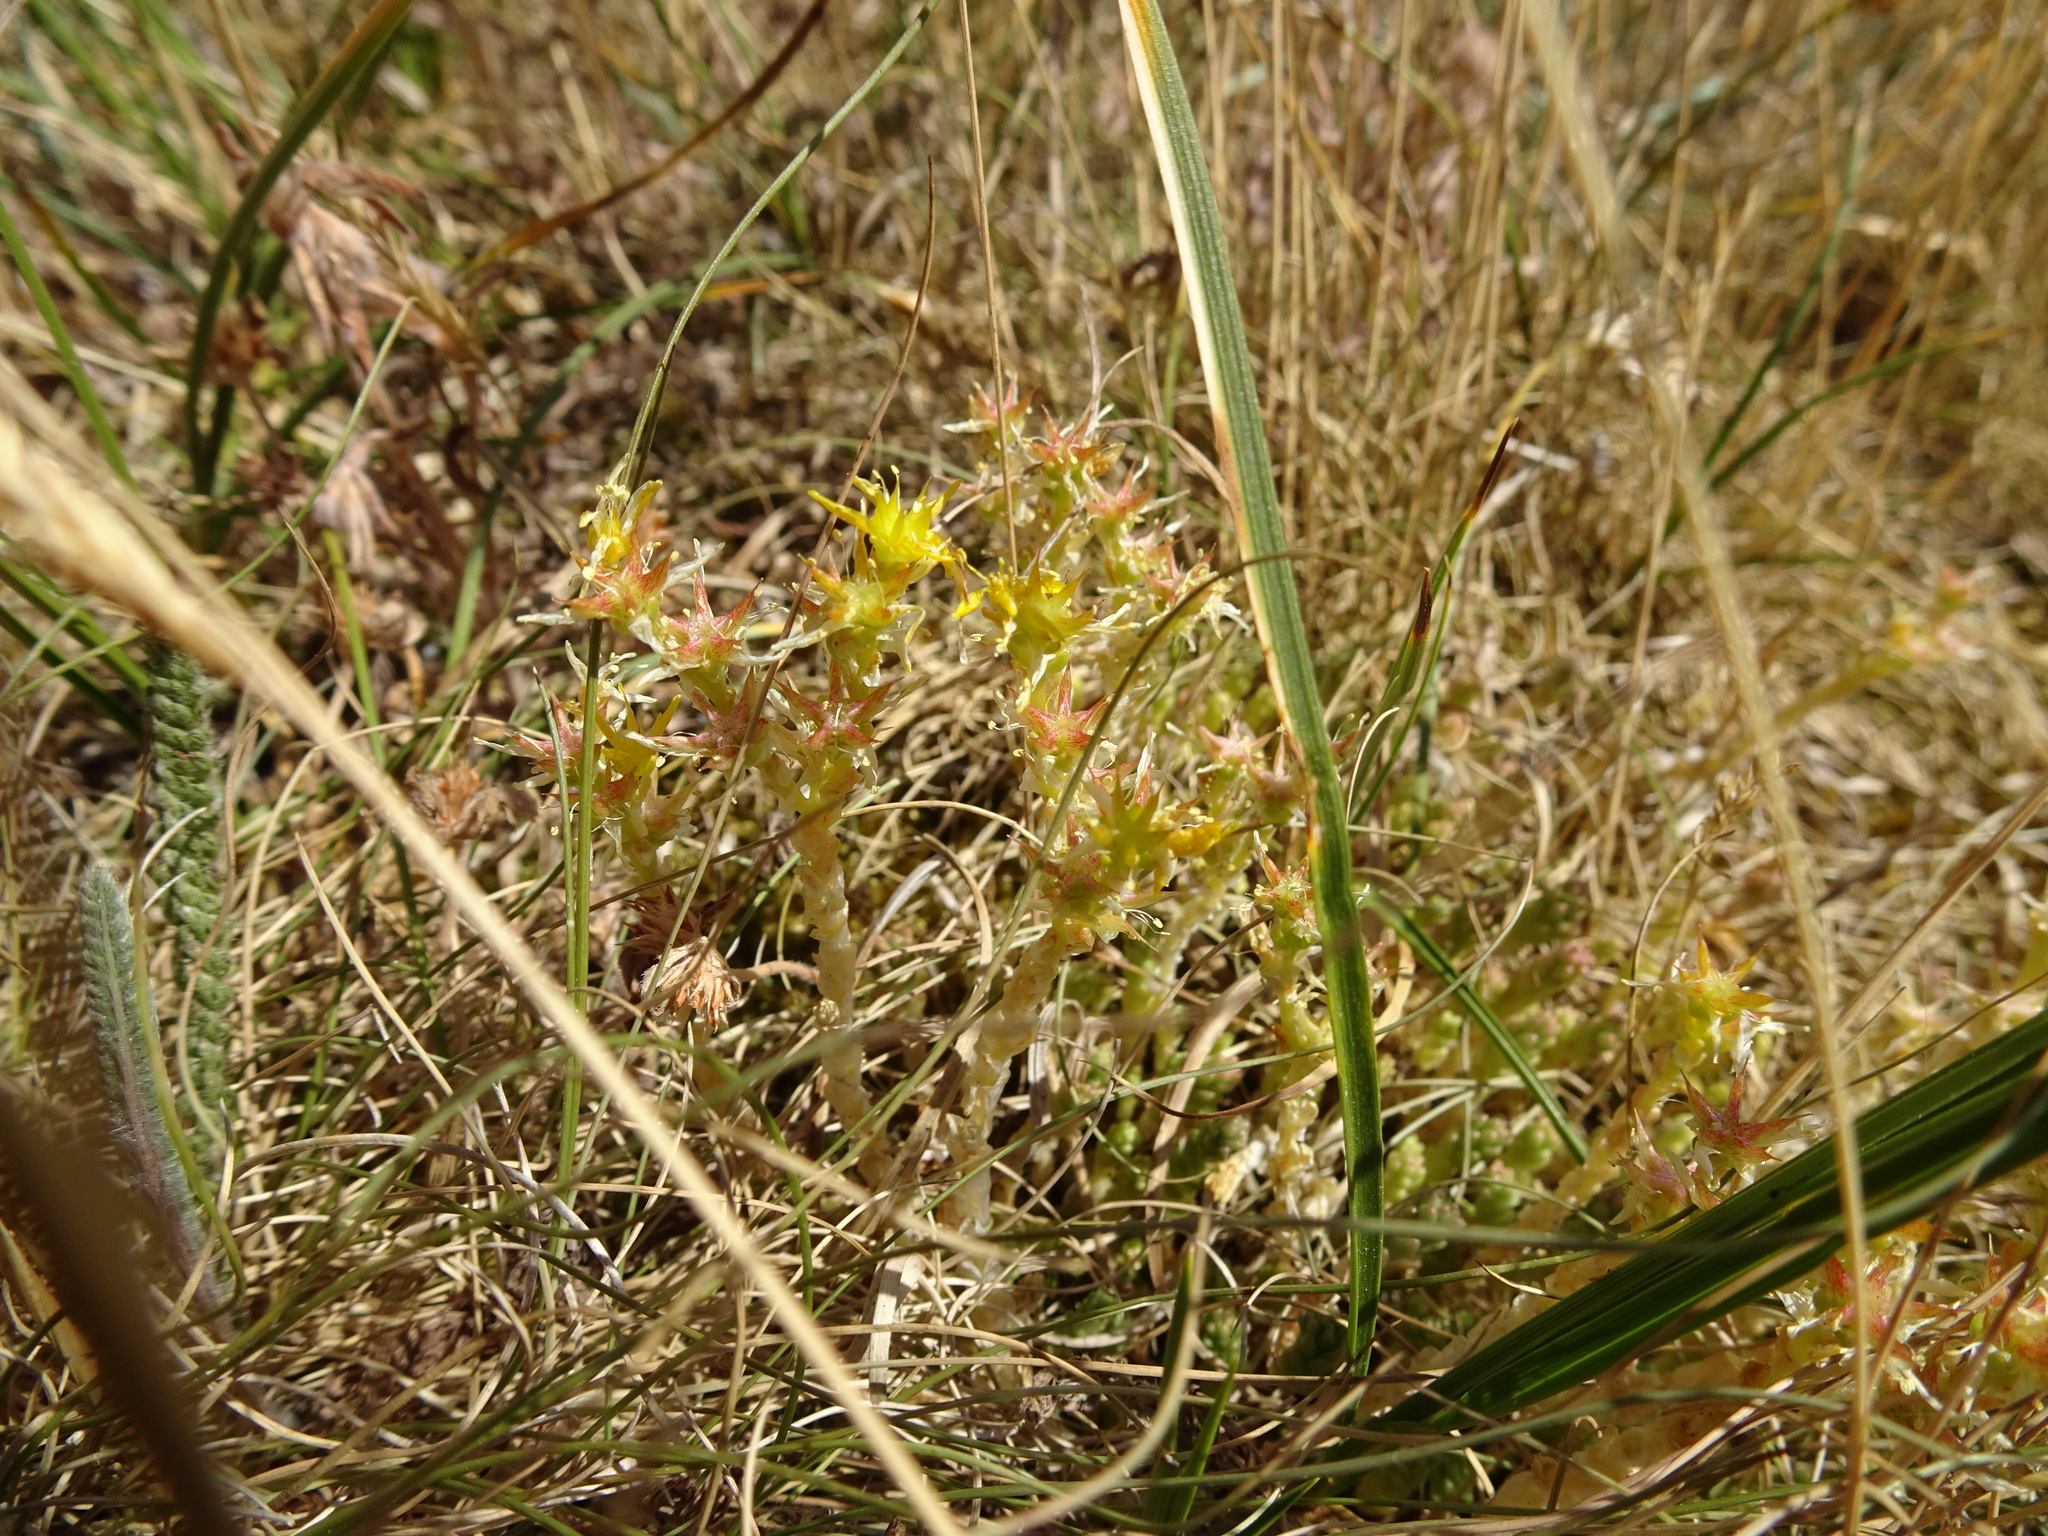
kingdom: Plantae
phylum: Tracheophyta
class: Magnoliopsida
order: Saxifragales
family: Crassulaceae
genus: Sedum
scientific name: Sedum acre
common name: Biting stonecrop
